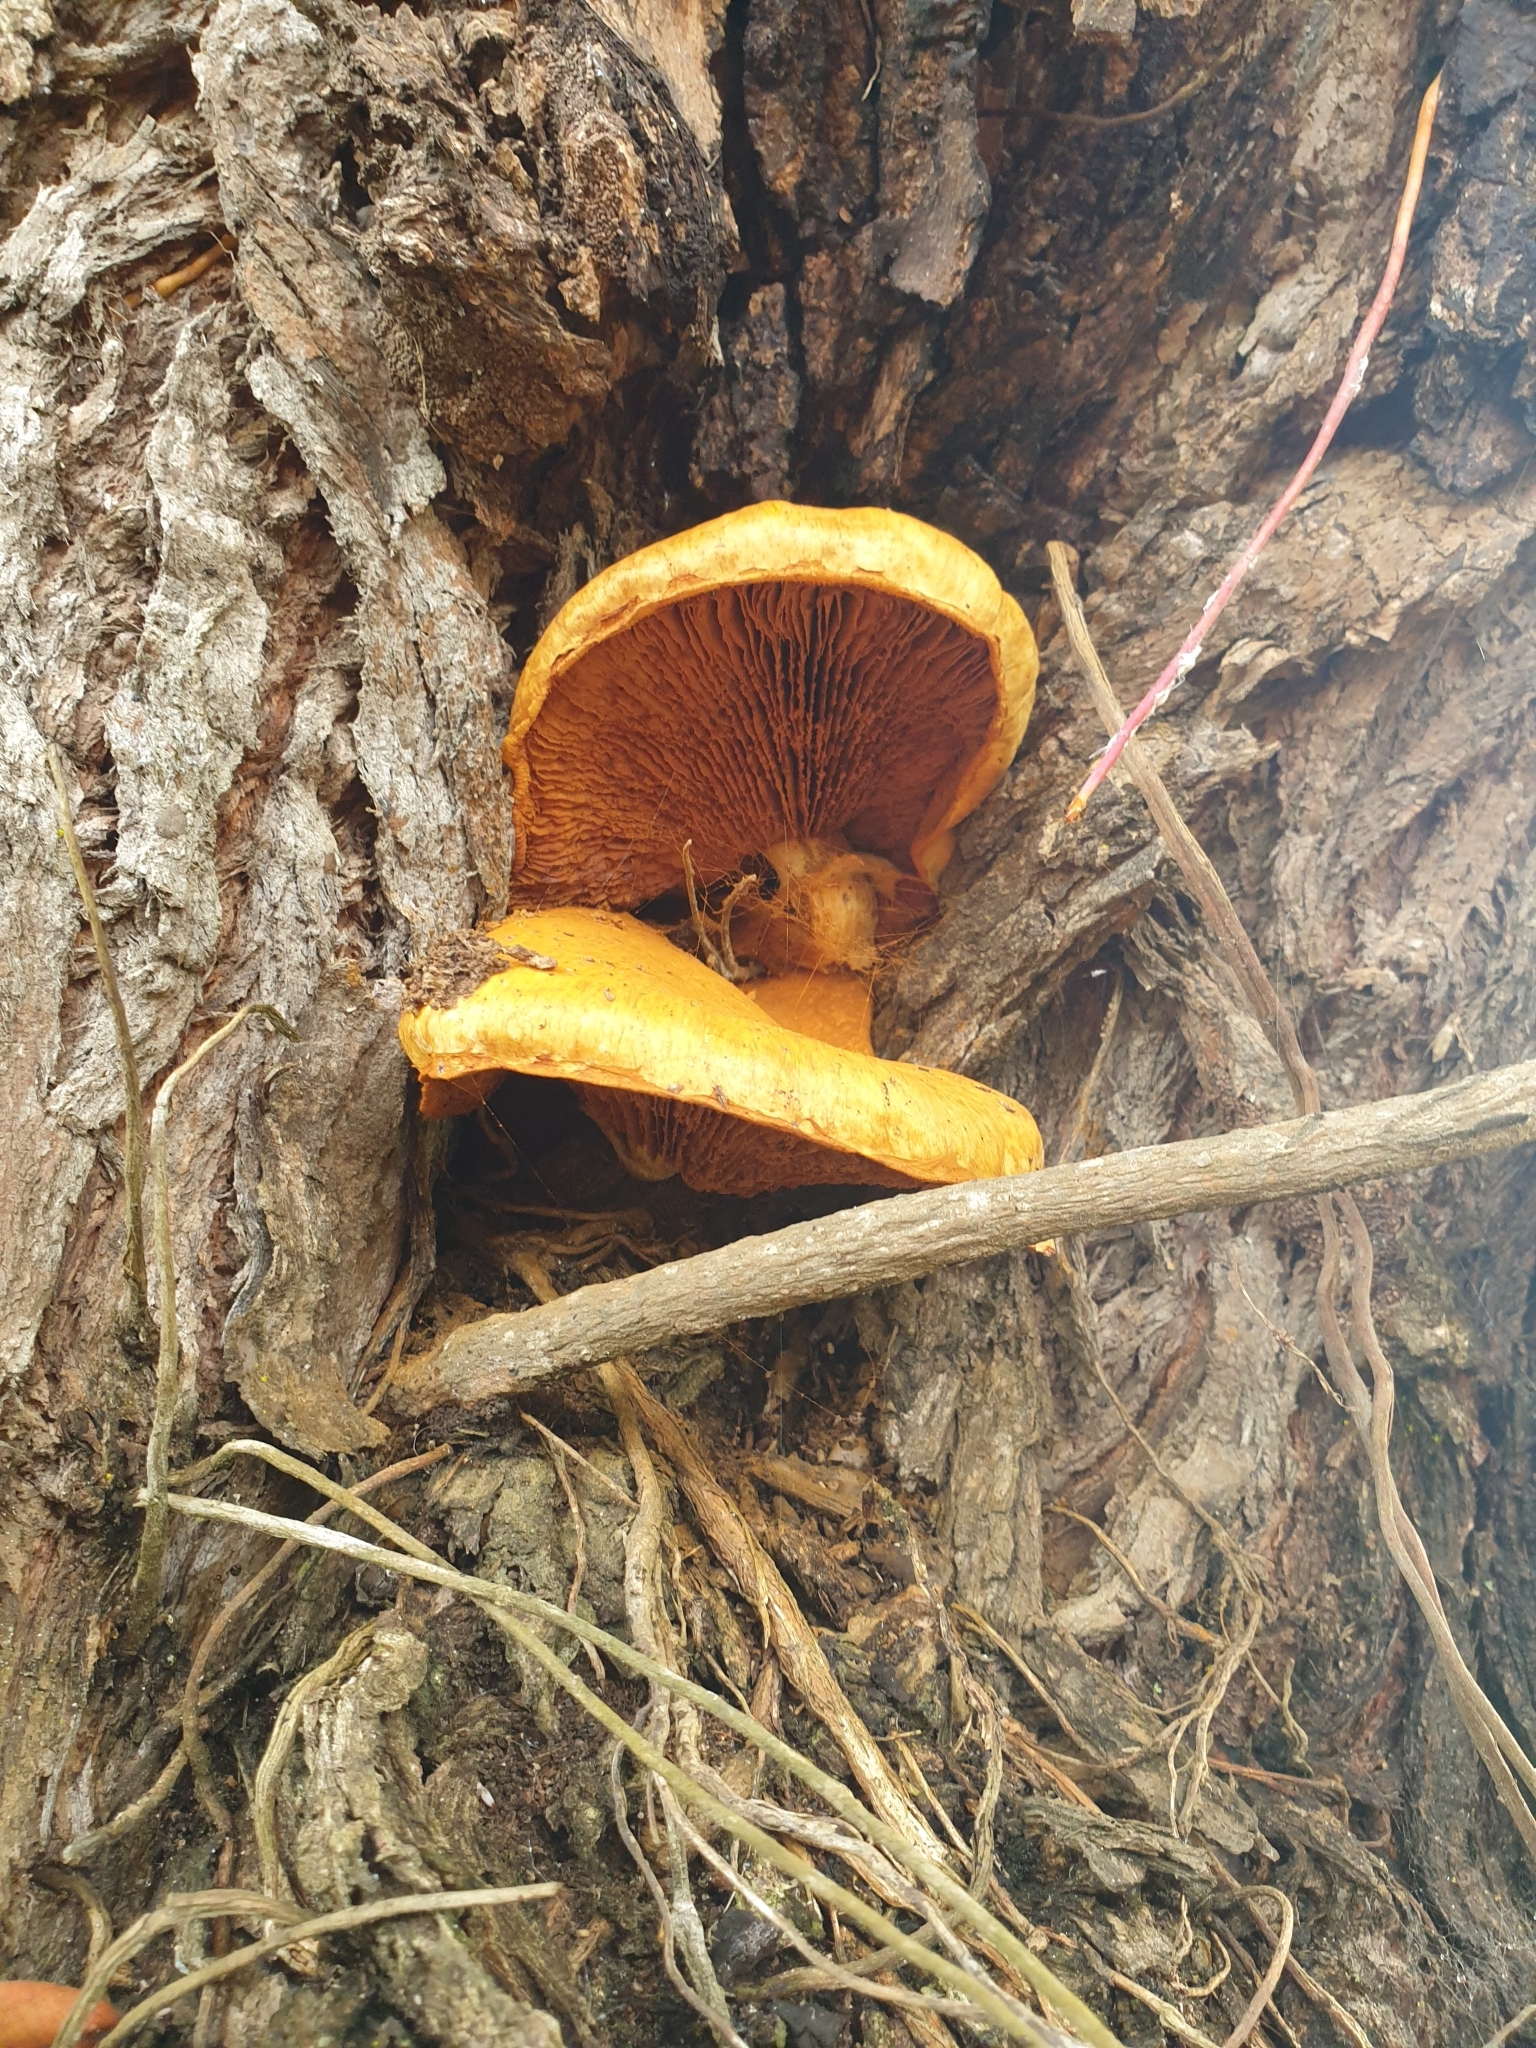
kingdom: Fungi
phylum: Basidiomycota
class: Agaricomycetes
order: Agaricales
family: Hymenogastraceae
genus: Gymnopilus
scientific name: Gymnopilus junonius
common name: Spectacular rustgill
